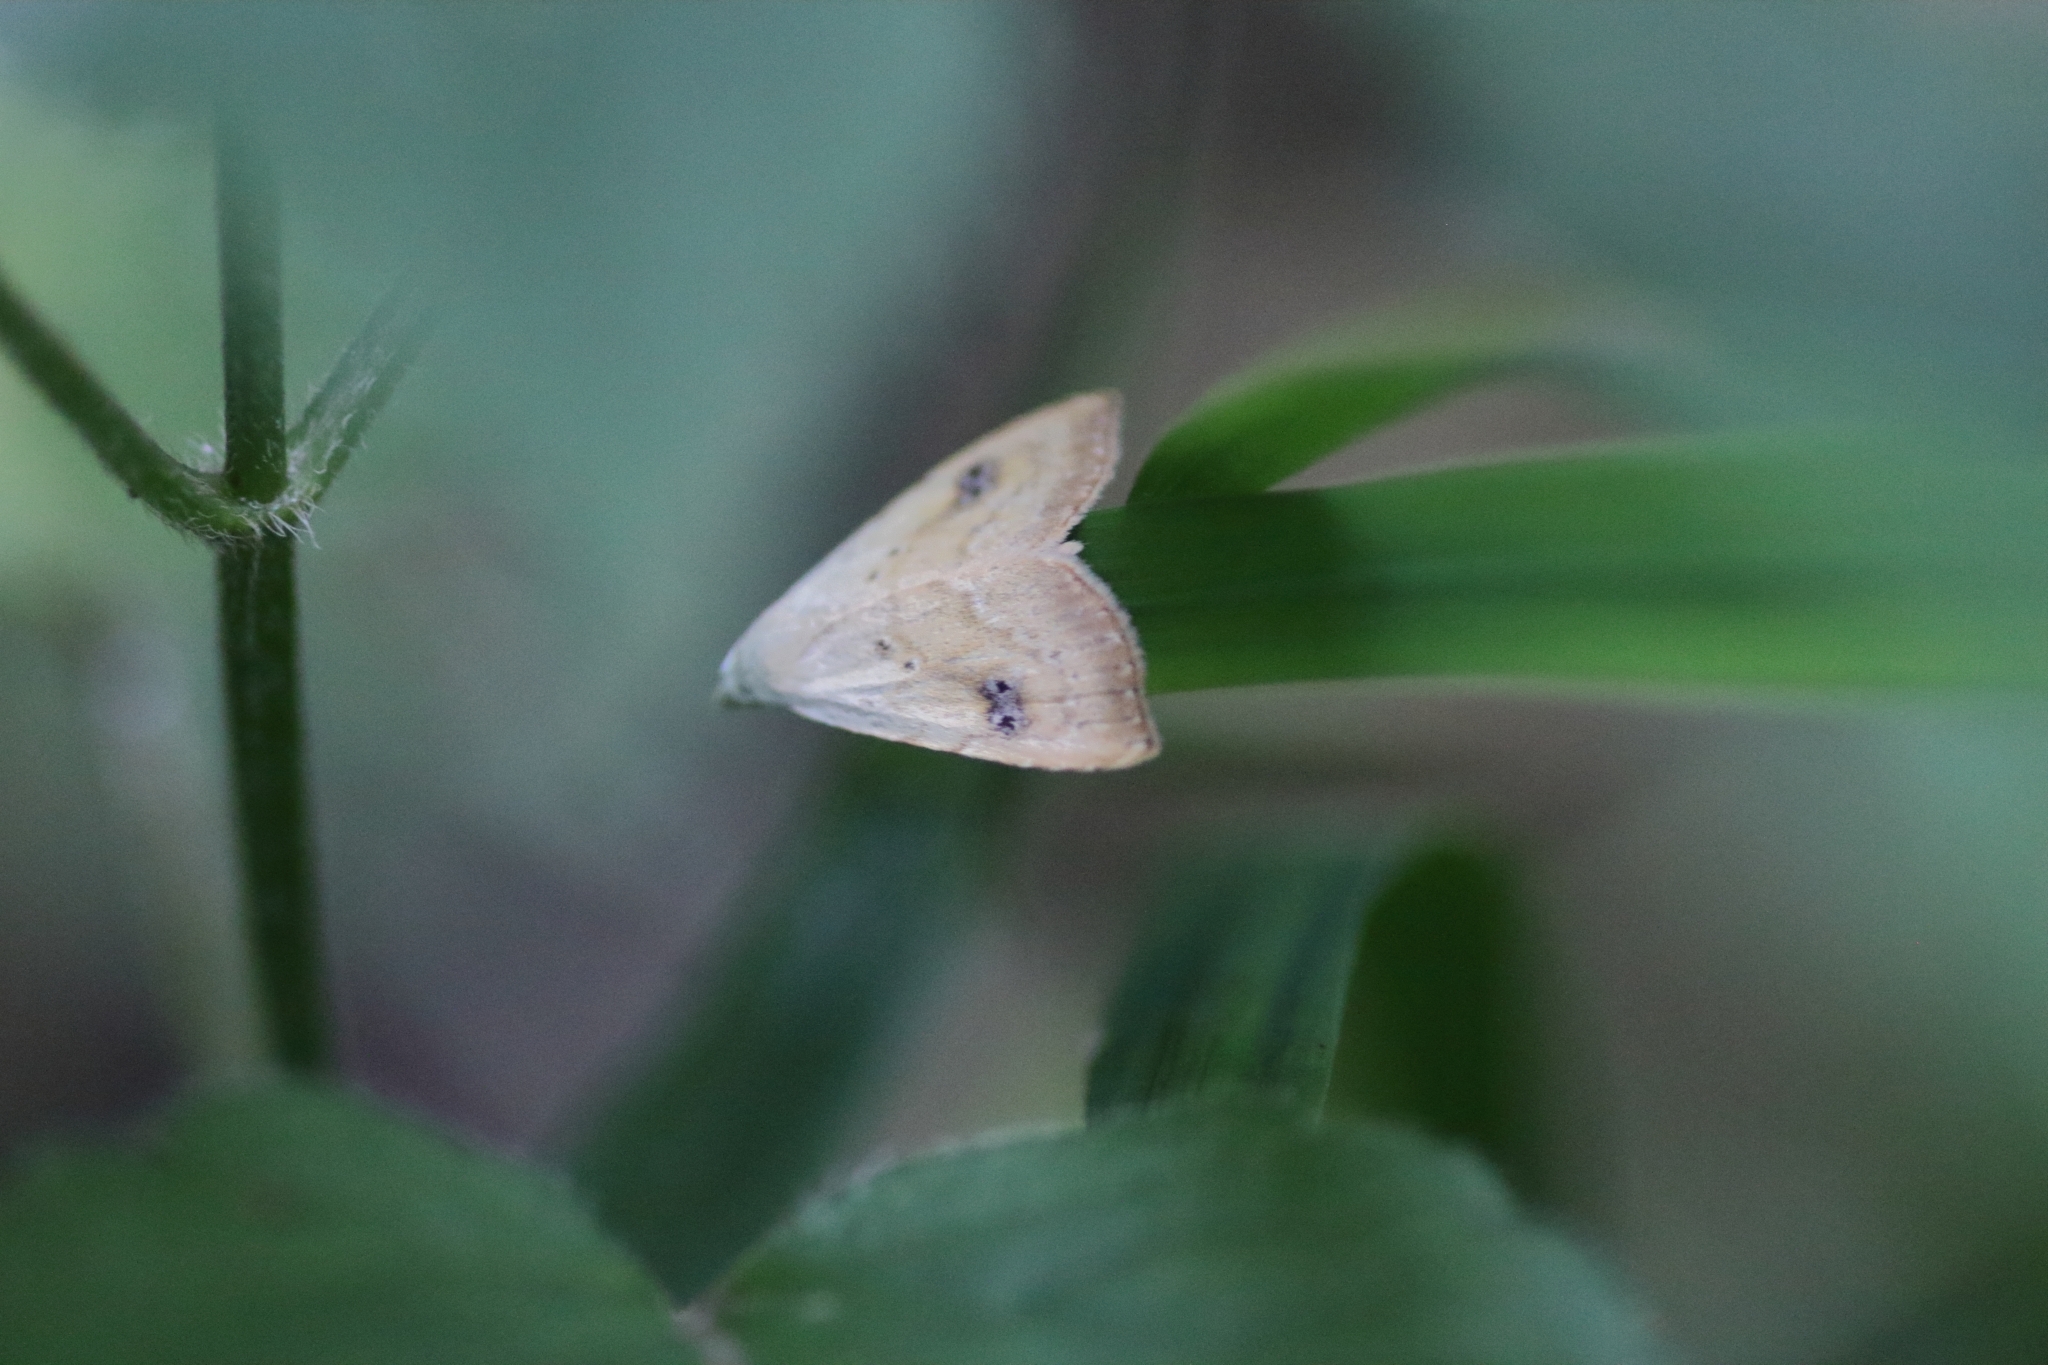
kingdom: Animalia
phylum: Arthropoda
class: Insecta
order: Lepidoptera
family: Erebidae
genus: Rivula
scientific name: Rivula sericealis
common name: Straw dot
